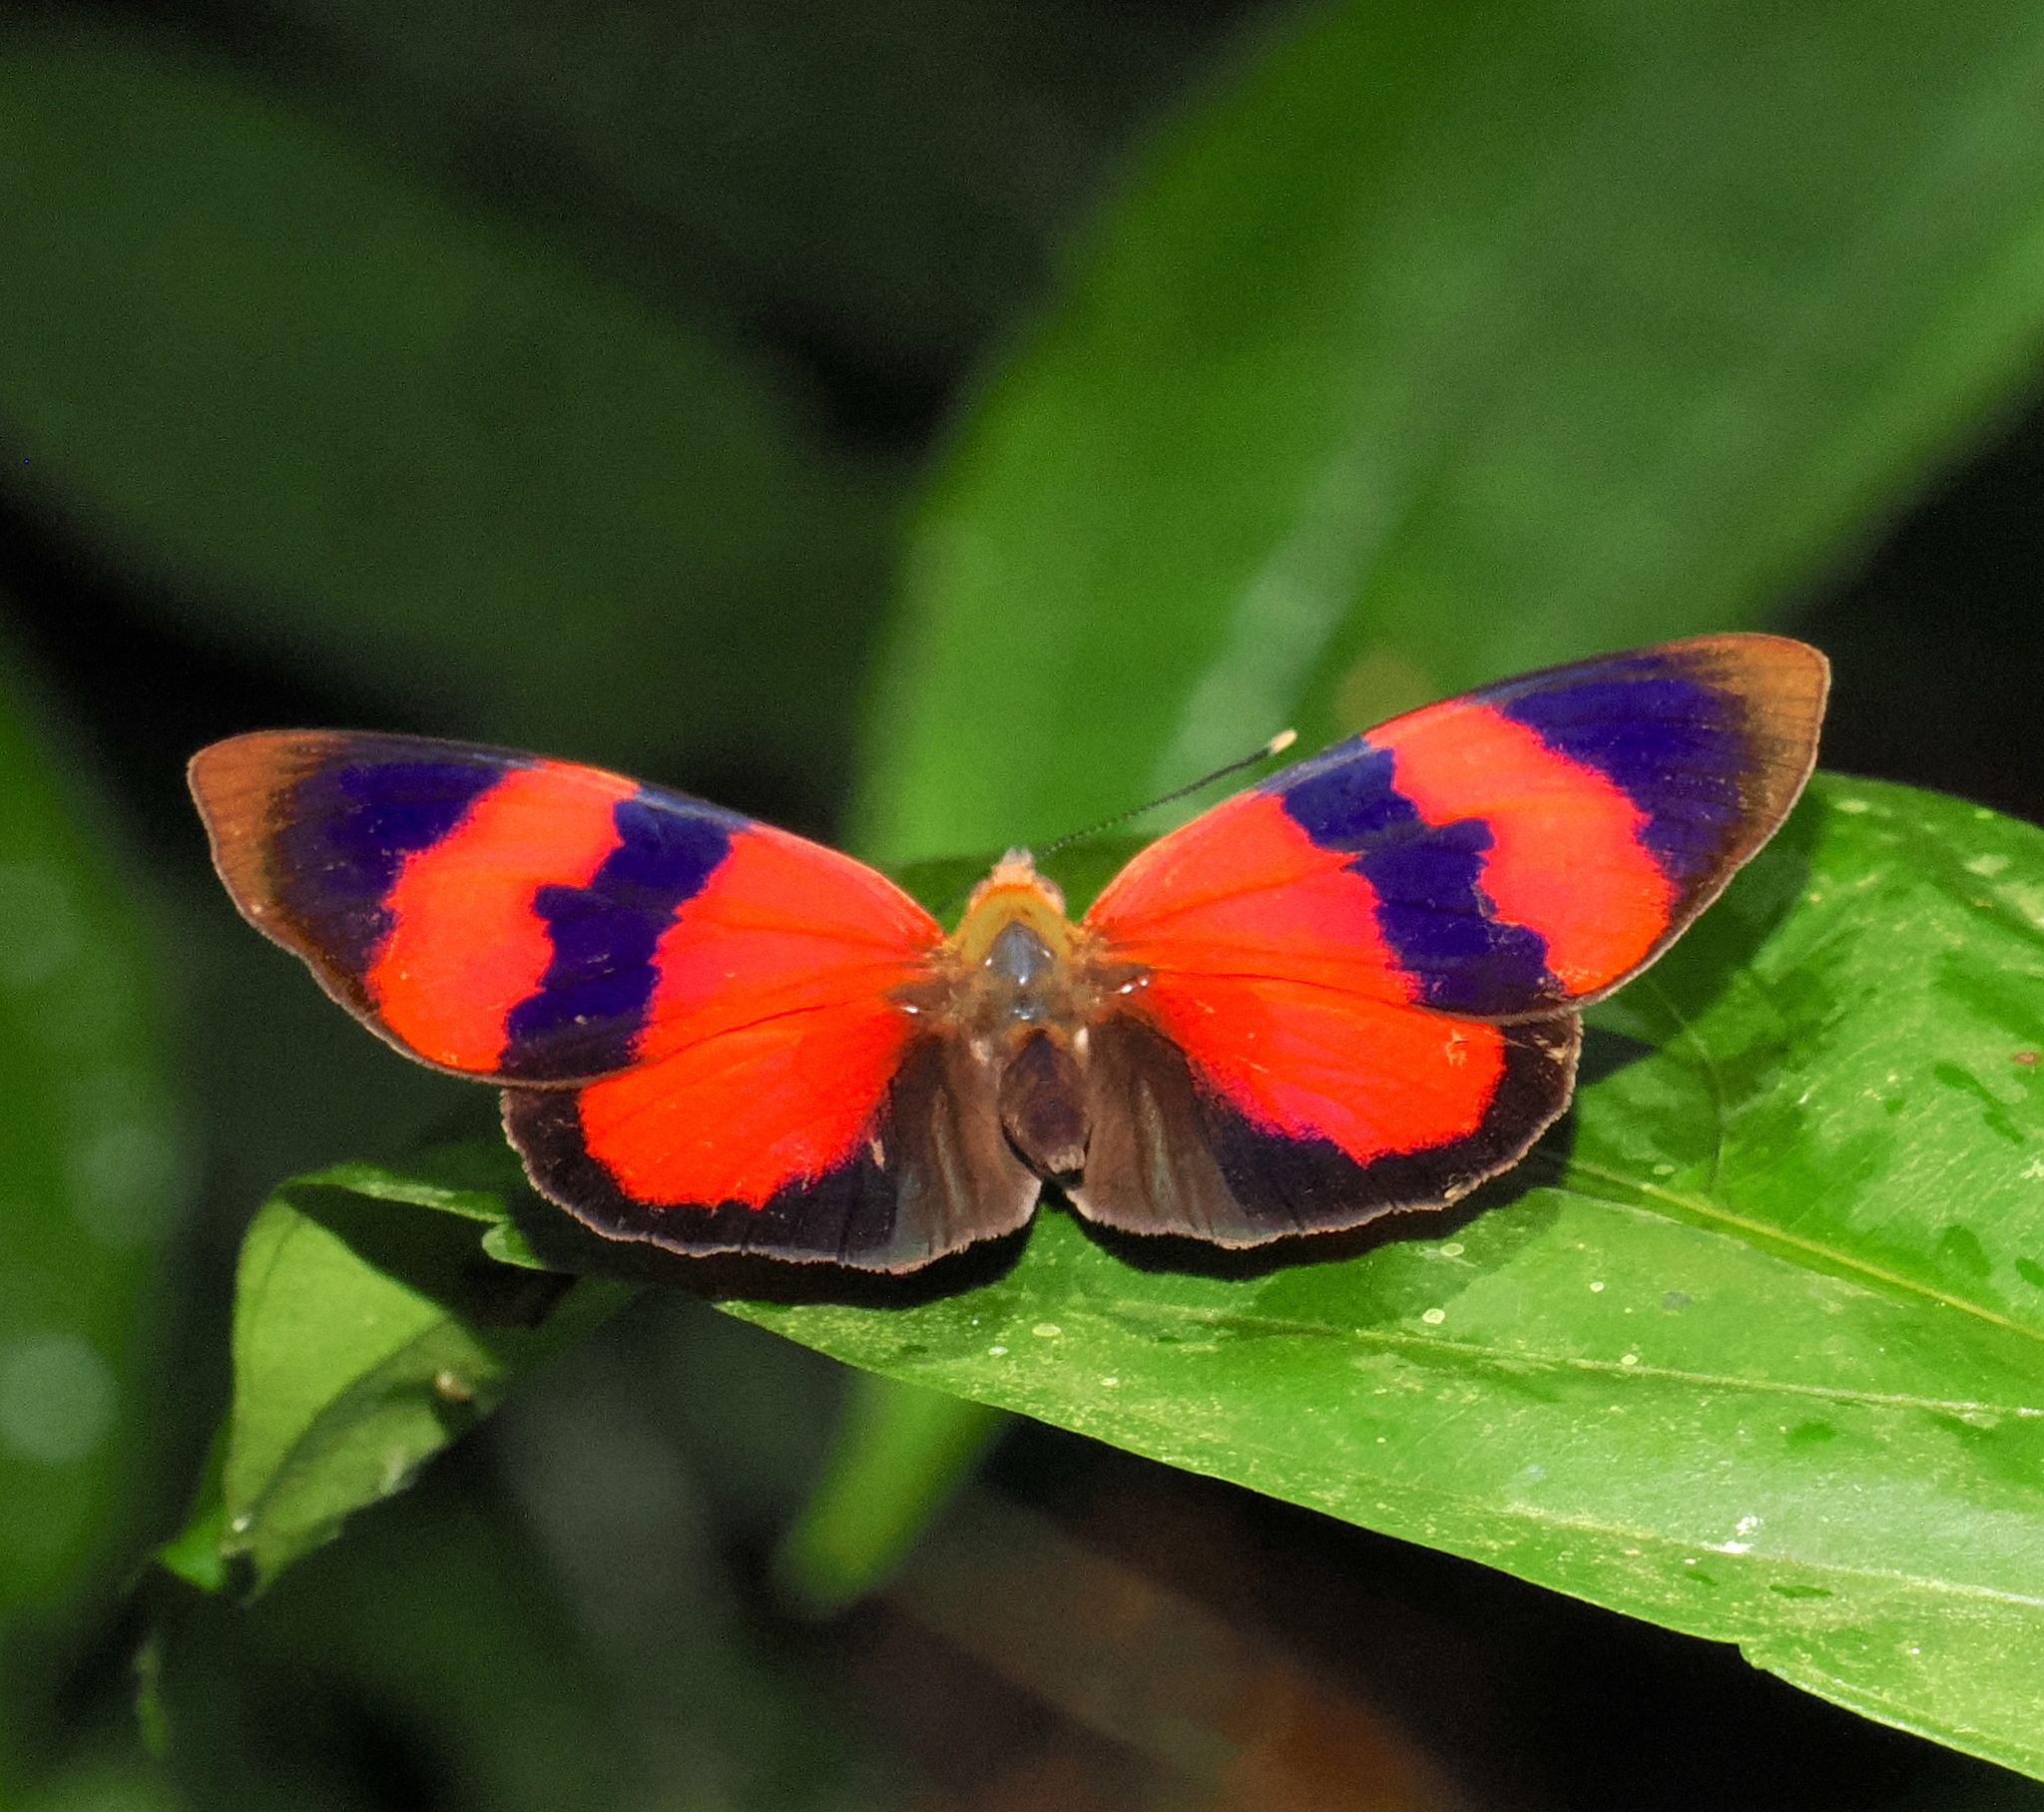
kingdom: Animalia
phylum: Arthropoda
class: Insecta
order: Lepidoptera
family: Nymphalidae
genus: Temenis
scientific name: Temenis pulchra
